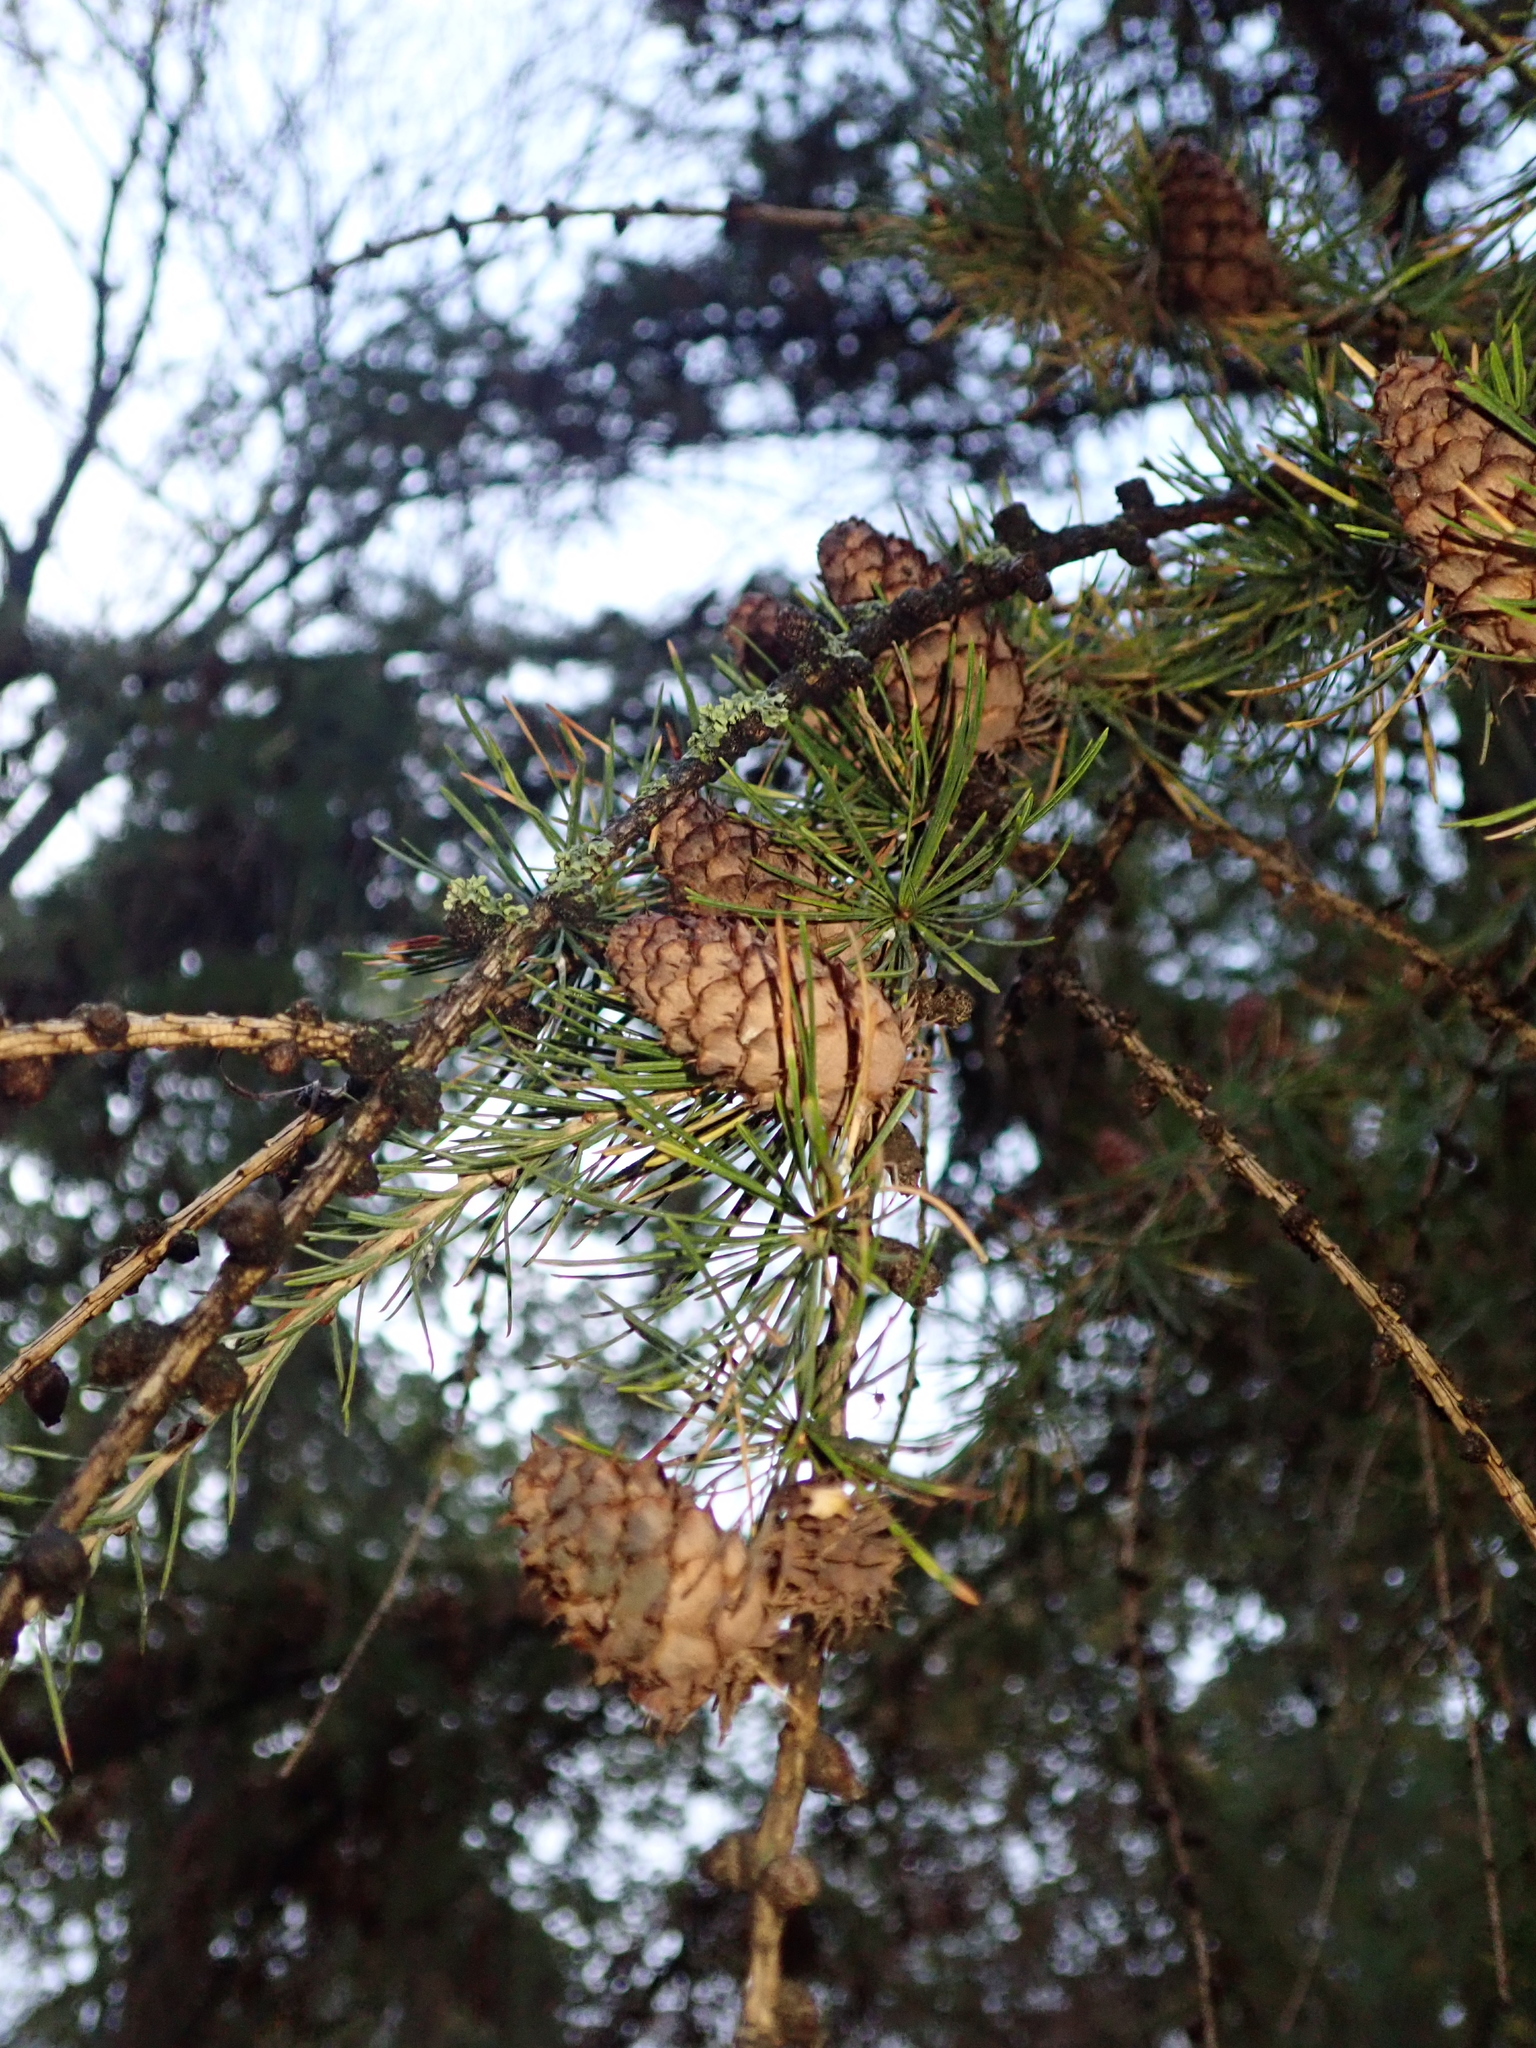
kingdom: Plantae
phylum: Tracheophyta
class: Pinopsida
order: Pinales
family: Pinaceae
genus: Larix
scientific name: Larix decidua
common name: European larch
